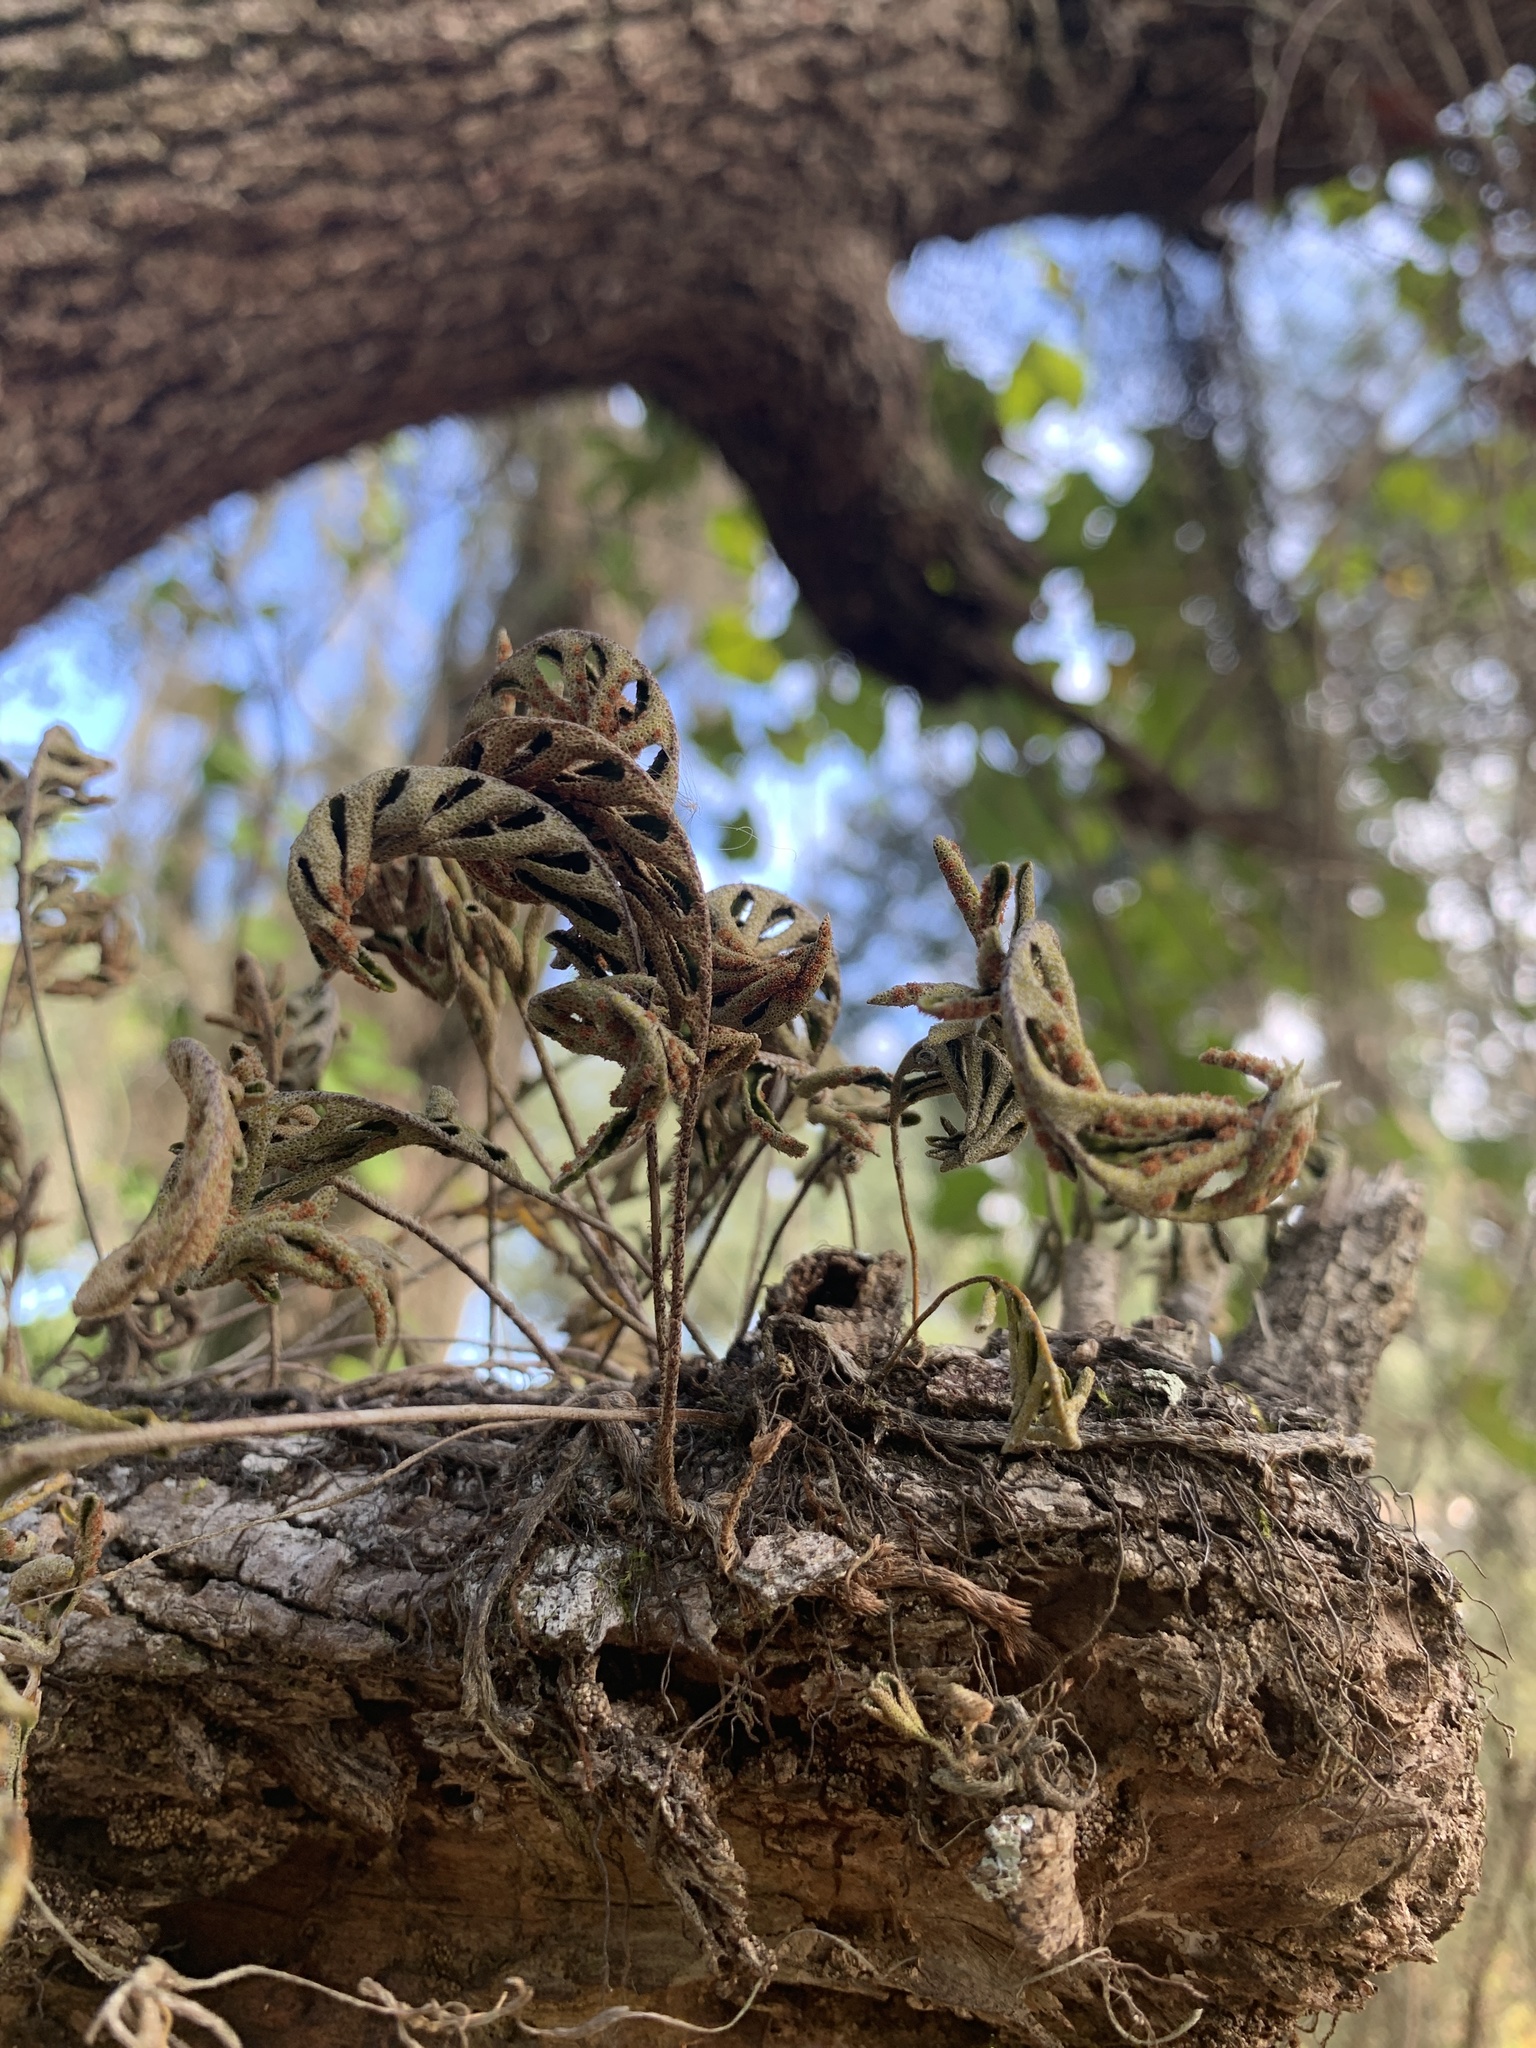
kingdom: Plantae
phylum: Tracheophyta
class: Polypodiopsida
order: Polypodiales
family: Polypodiaceae
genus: Pleopeltis
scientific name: Pleopeltis michauxiana
